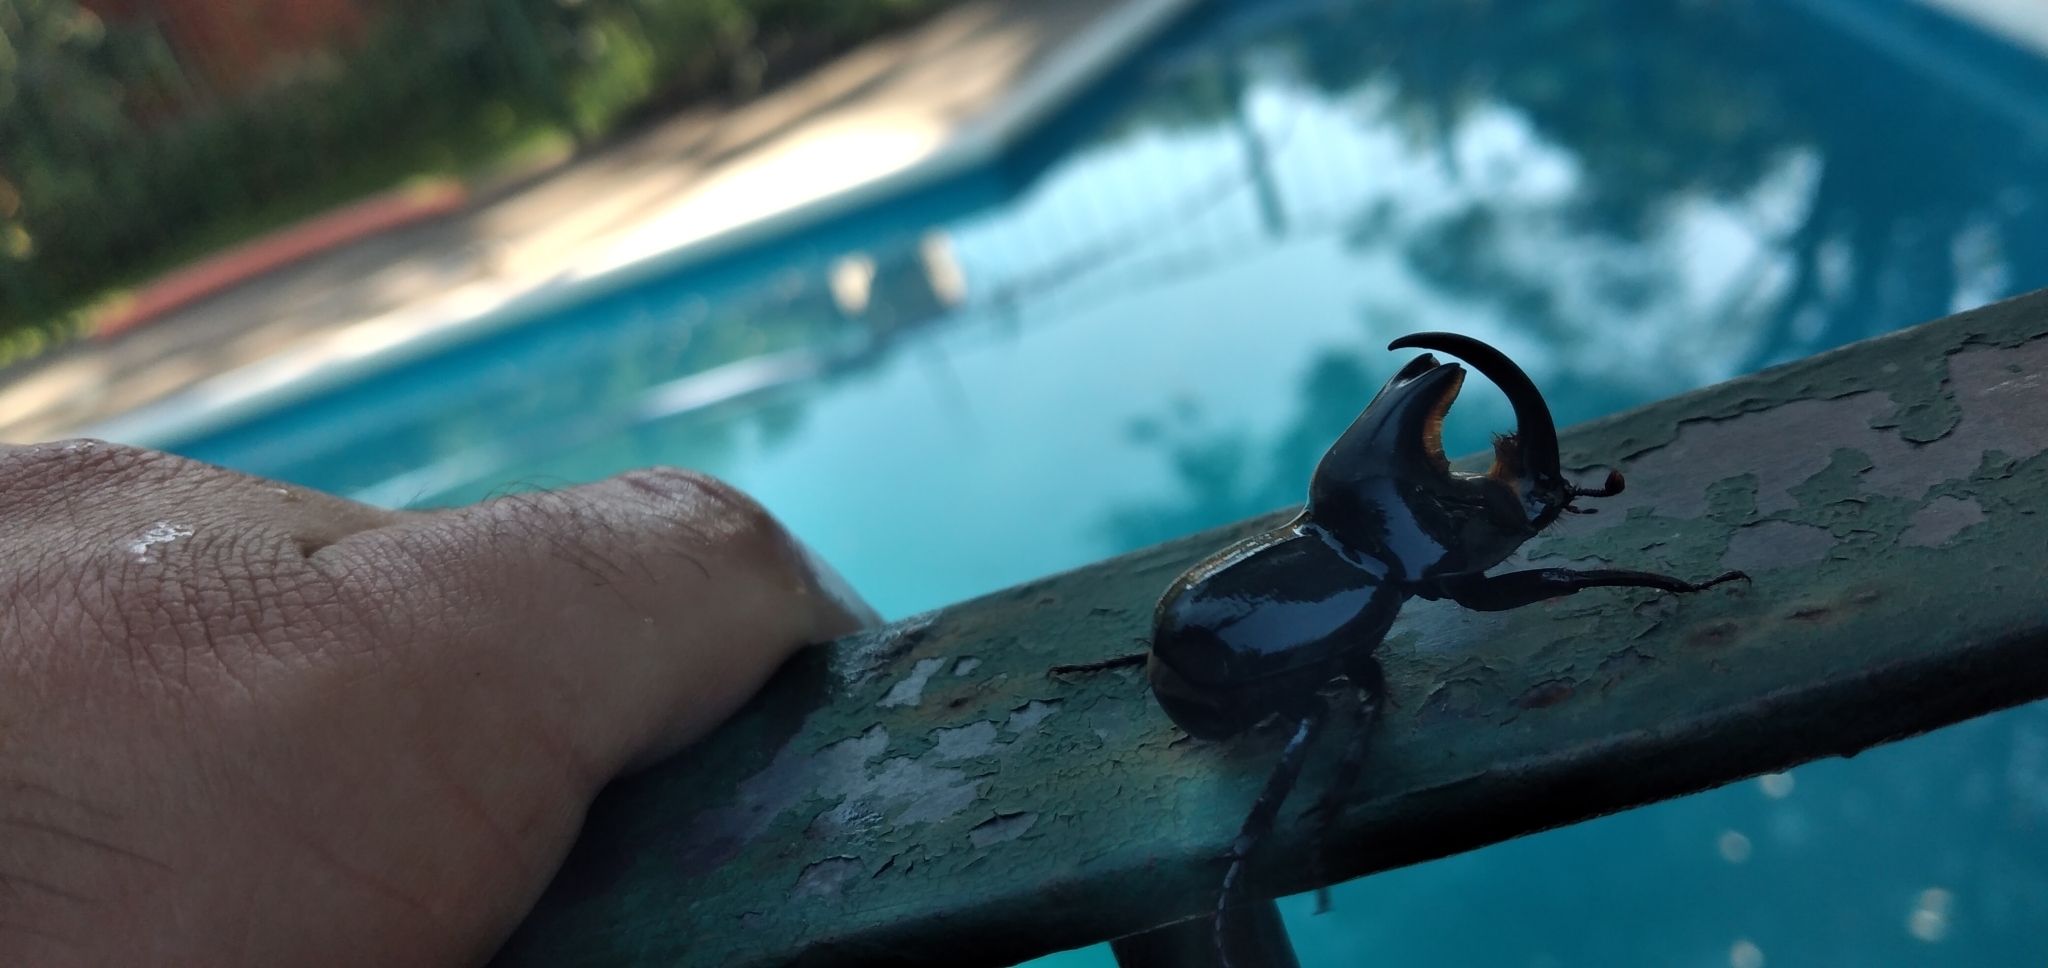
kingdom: Animalia
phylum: Arthropoda
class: Insecta
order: Coleoptera
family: Scarabaeidae
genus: Diloboderus
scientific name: Diloboderus abderus
